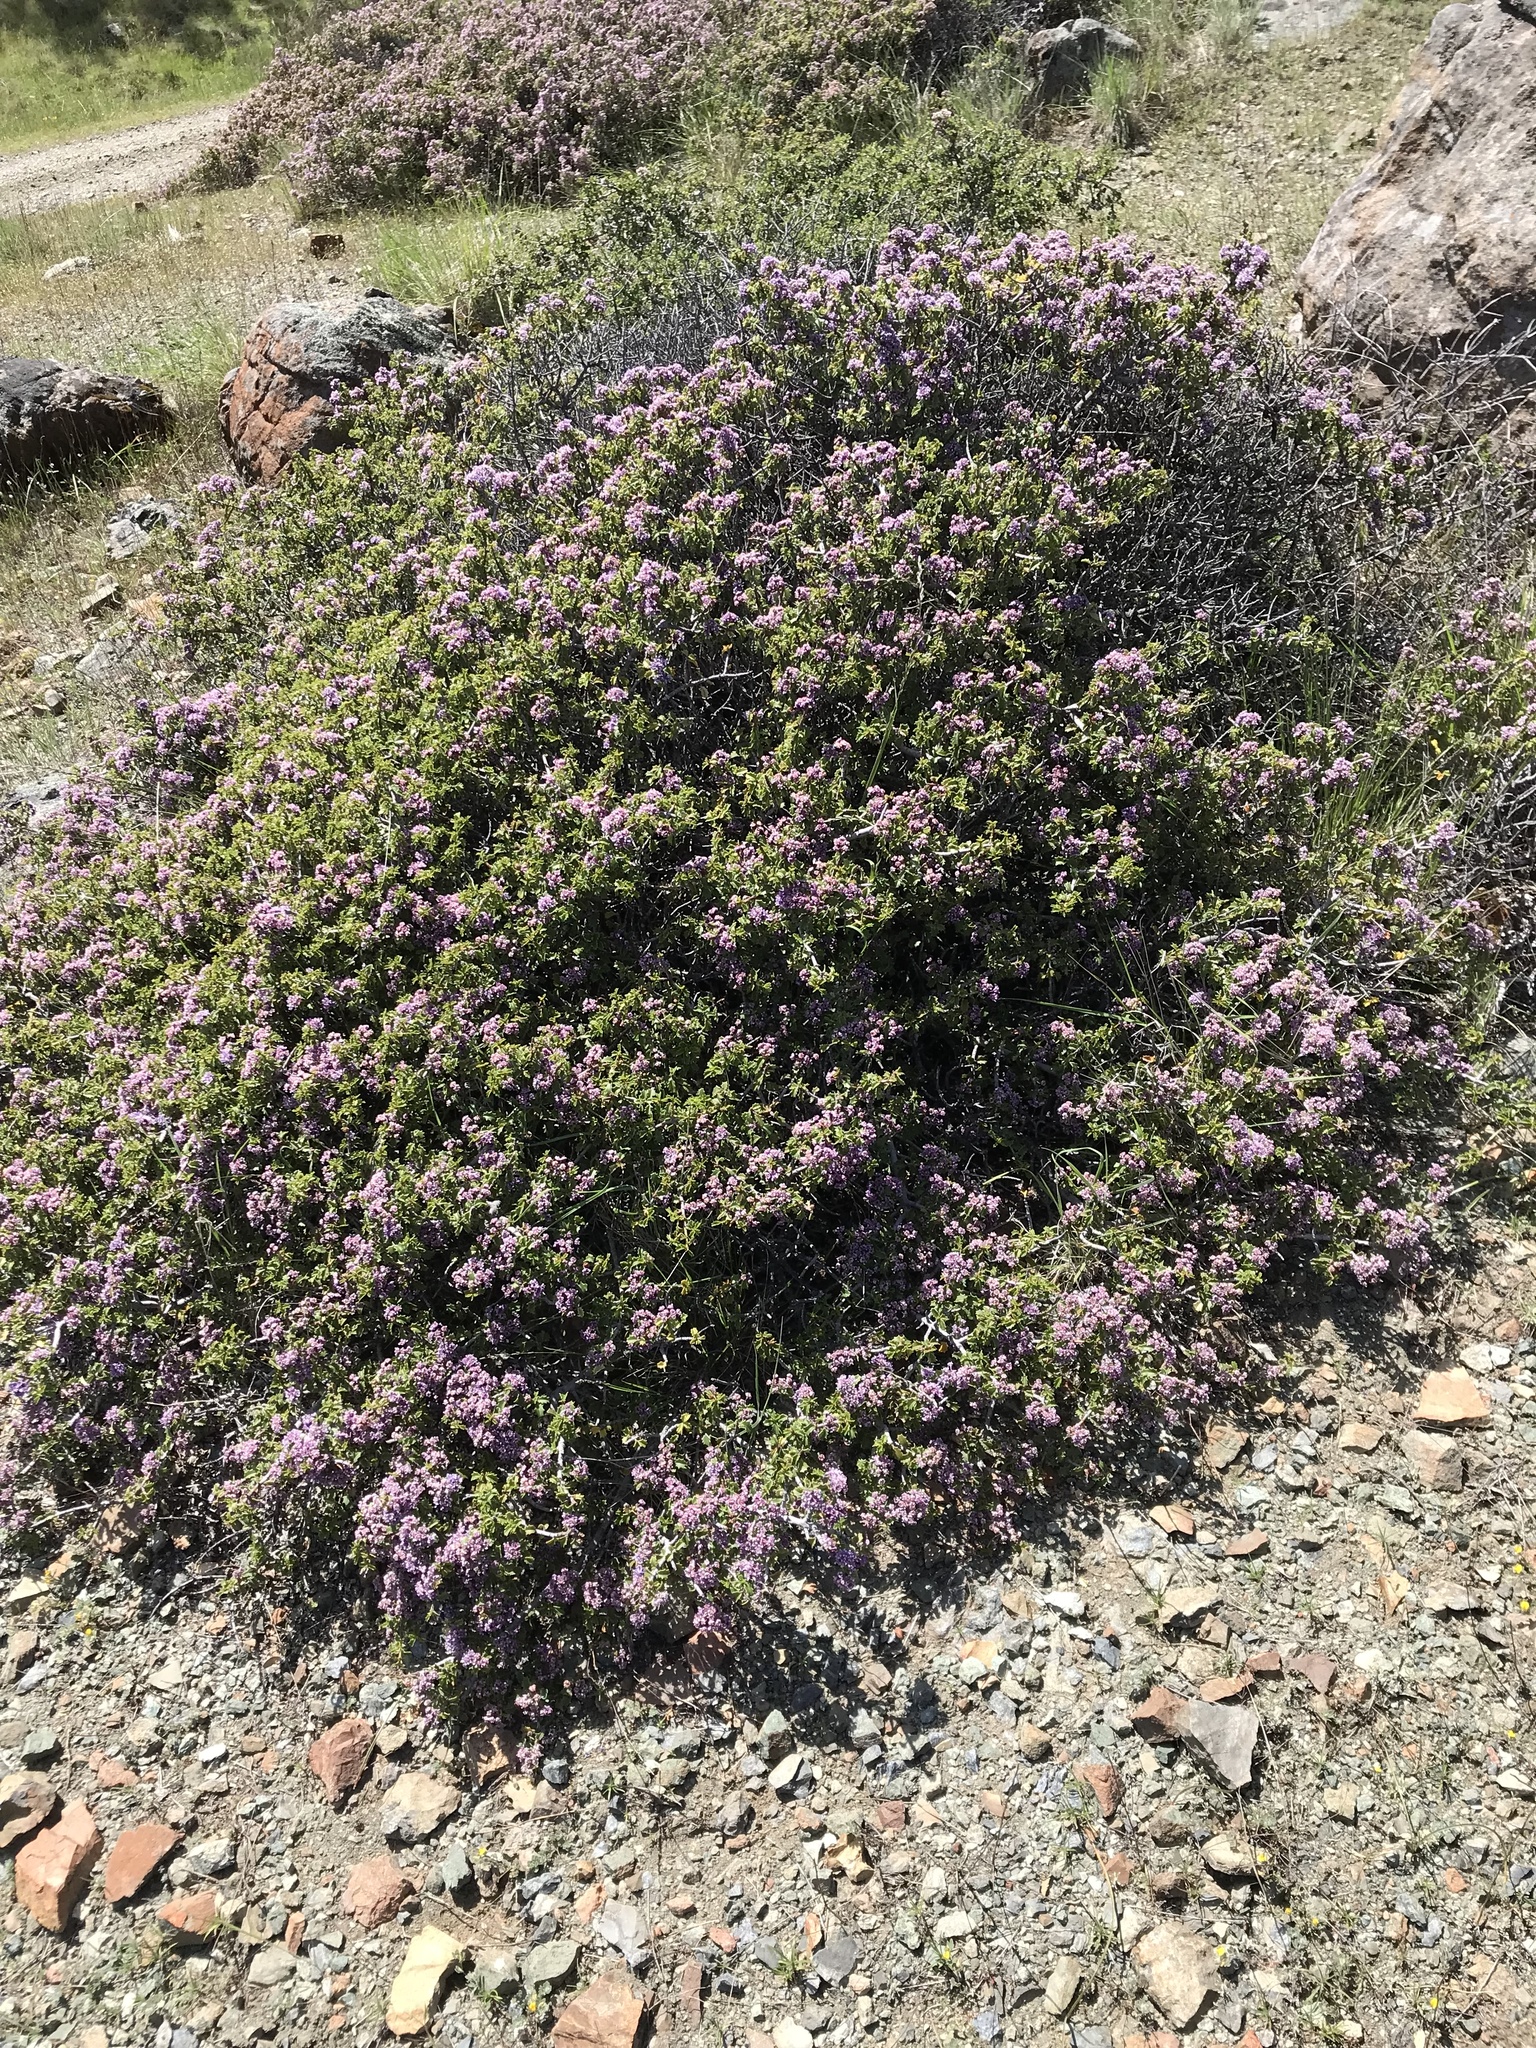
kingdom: Plantae
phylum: Tracheophyta
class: Magnoliopsida
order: Rosales
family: Rhamnaceae
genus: Ceanothus
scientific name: Ceanothus jepsonii
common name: Muskbrush
